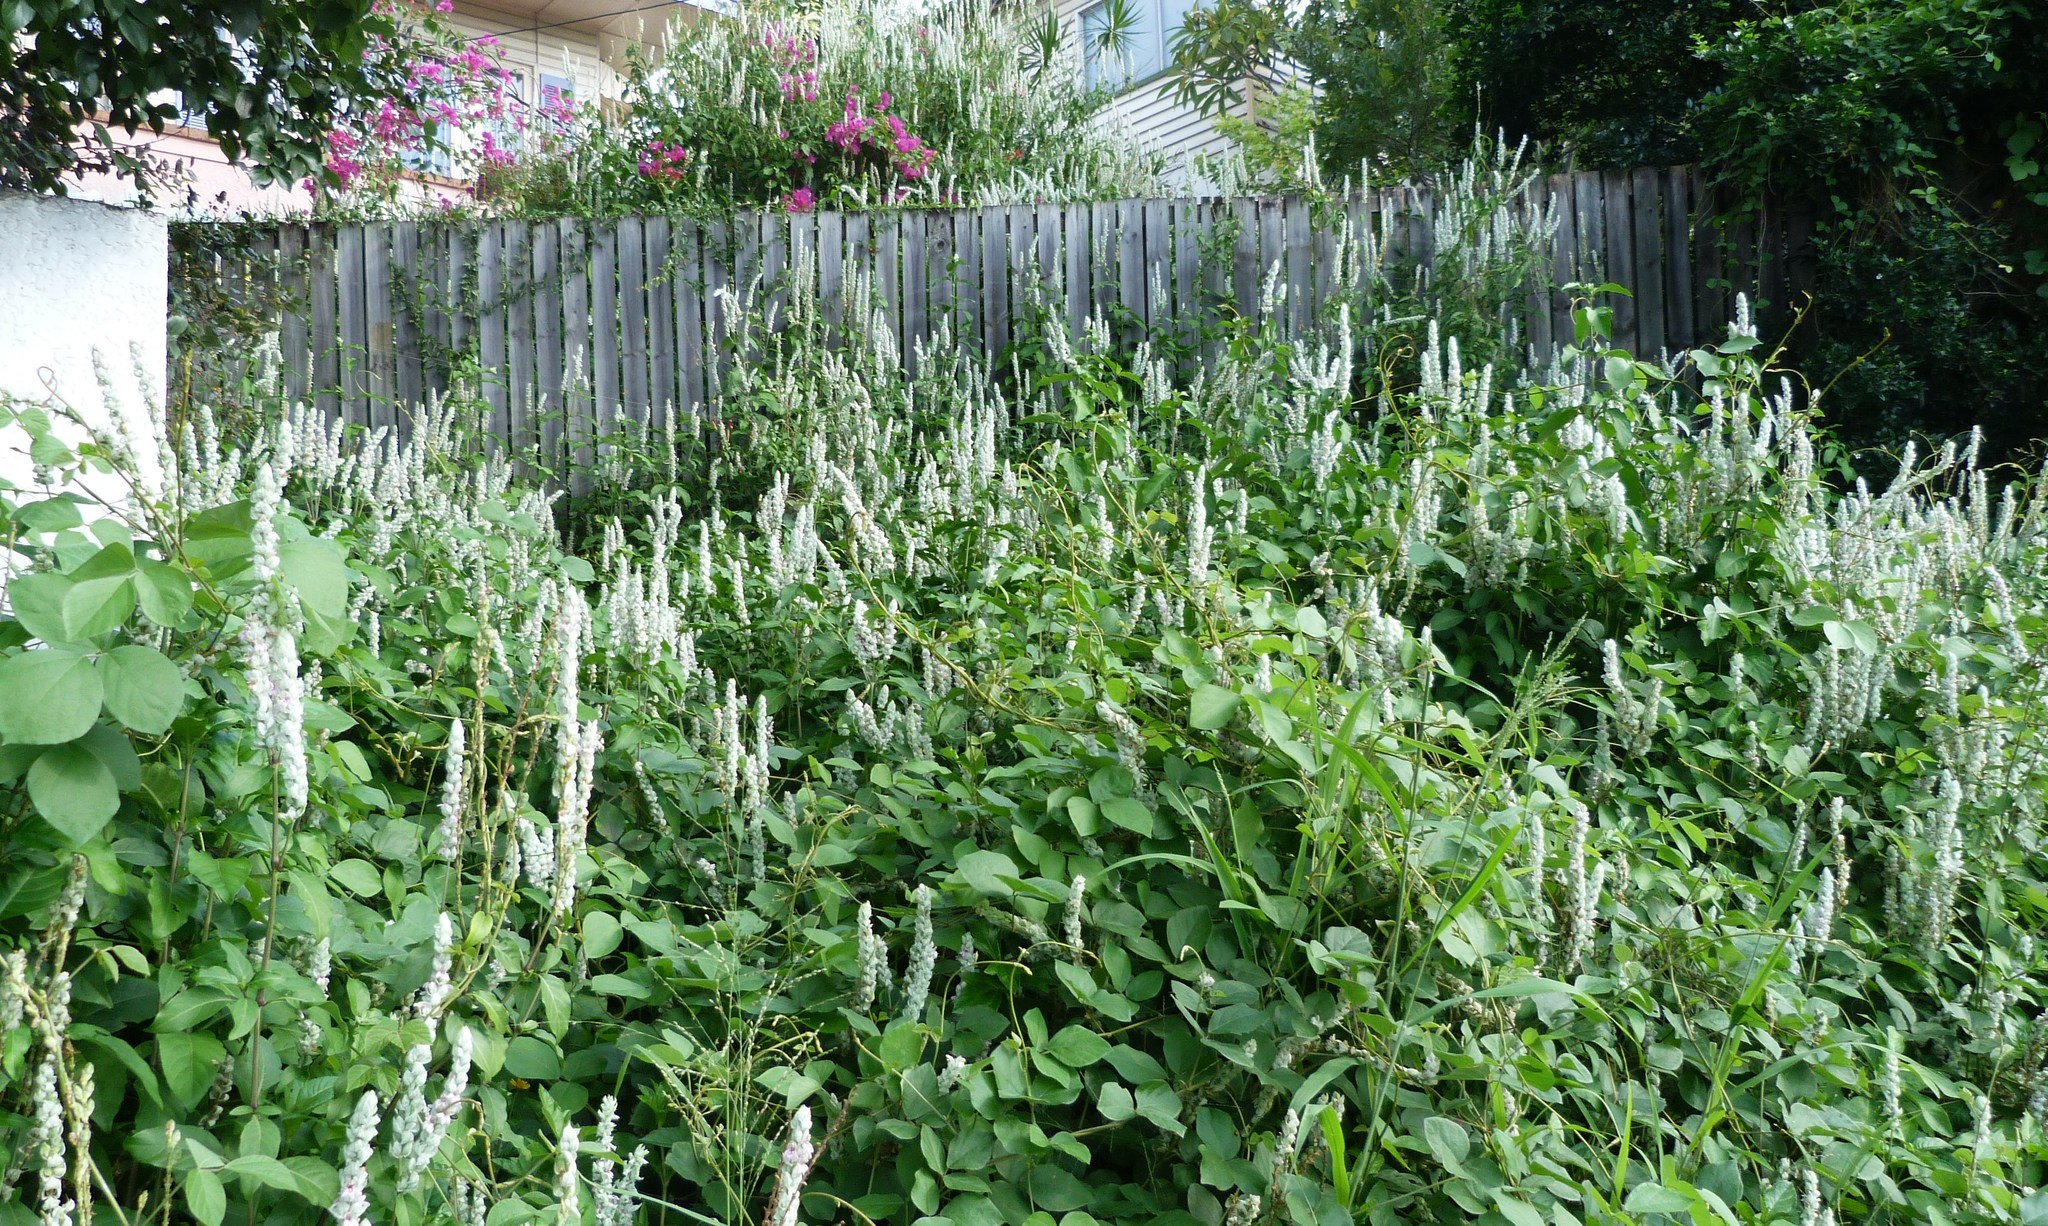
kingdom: Plantae
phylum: Tracheophyta
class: Magnoliopsida
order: Lamiales
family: Acanthaceae
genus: Justicia
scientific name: Justicia betonica
